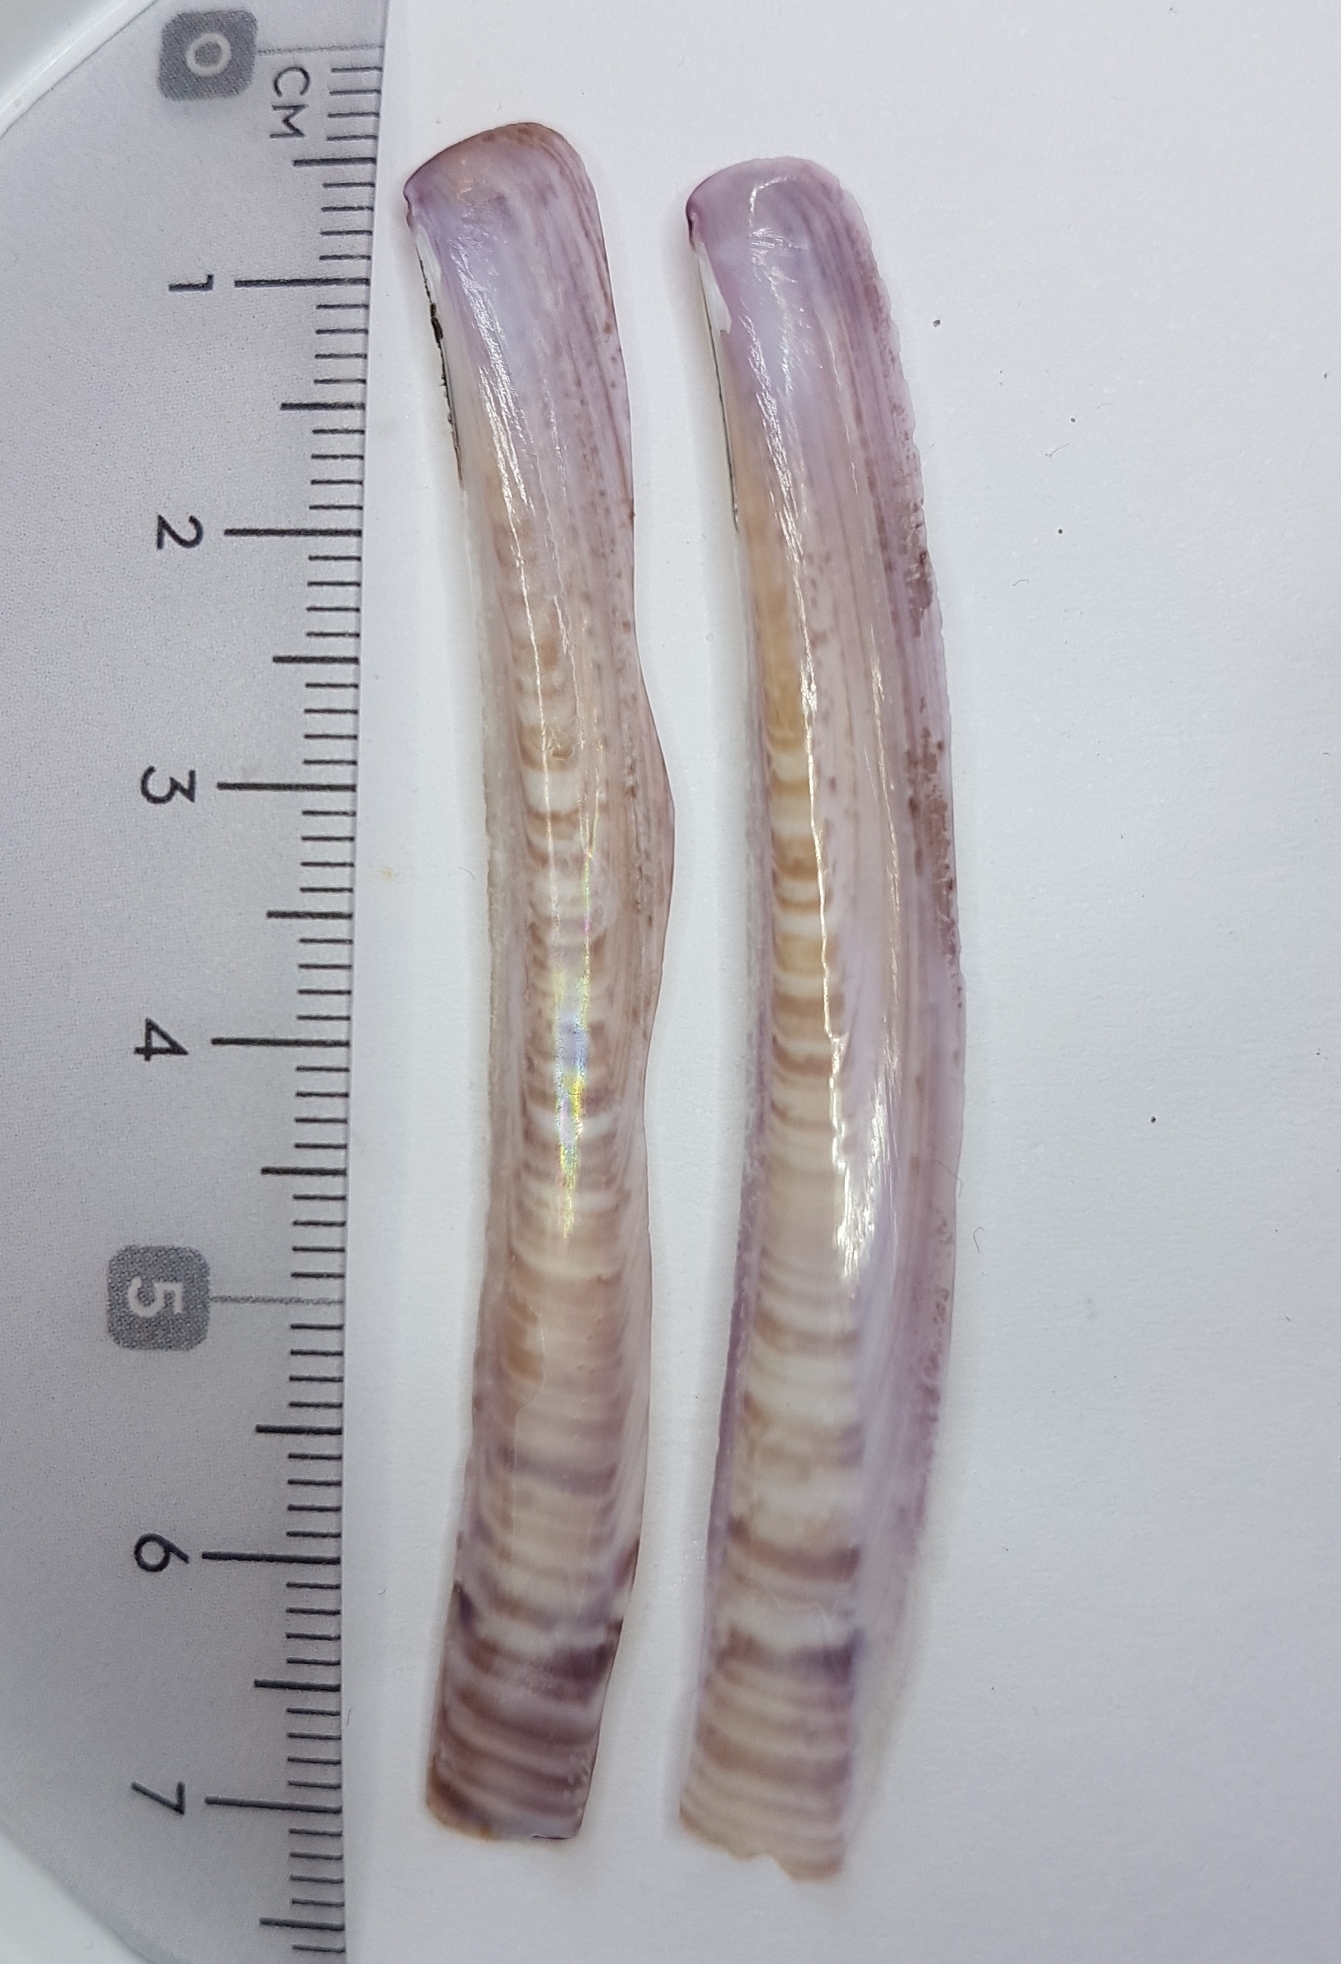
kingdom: Animalia
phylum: Mollusca
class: Bivalvia
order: Adapedonta
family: Pharidae
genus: Ensis
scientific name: Ensis ensis
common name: Common razor shell
